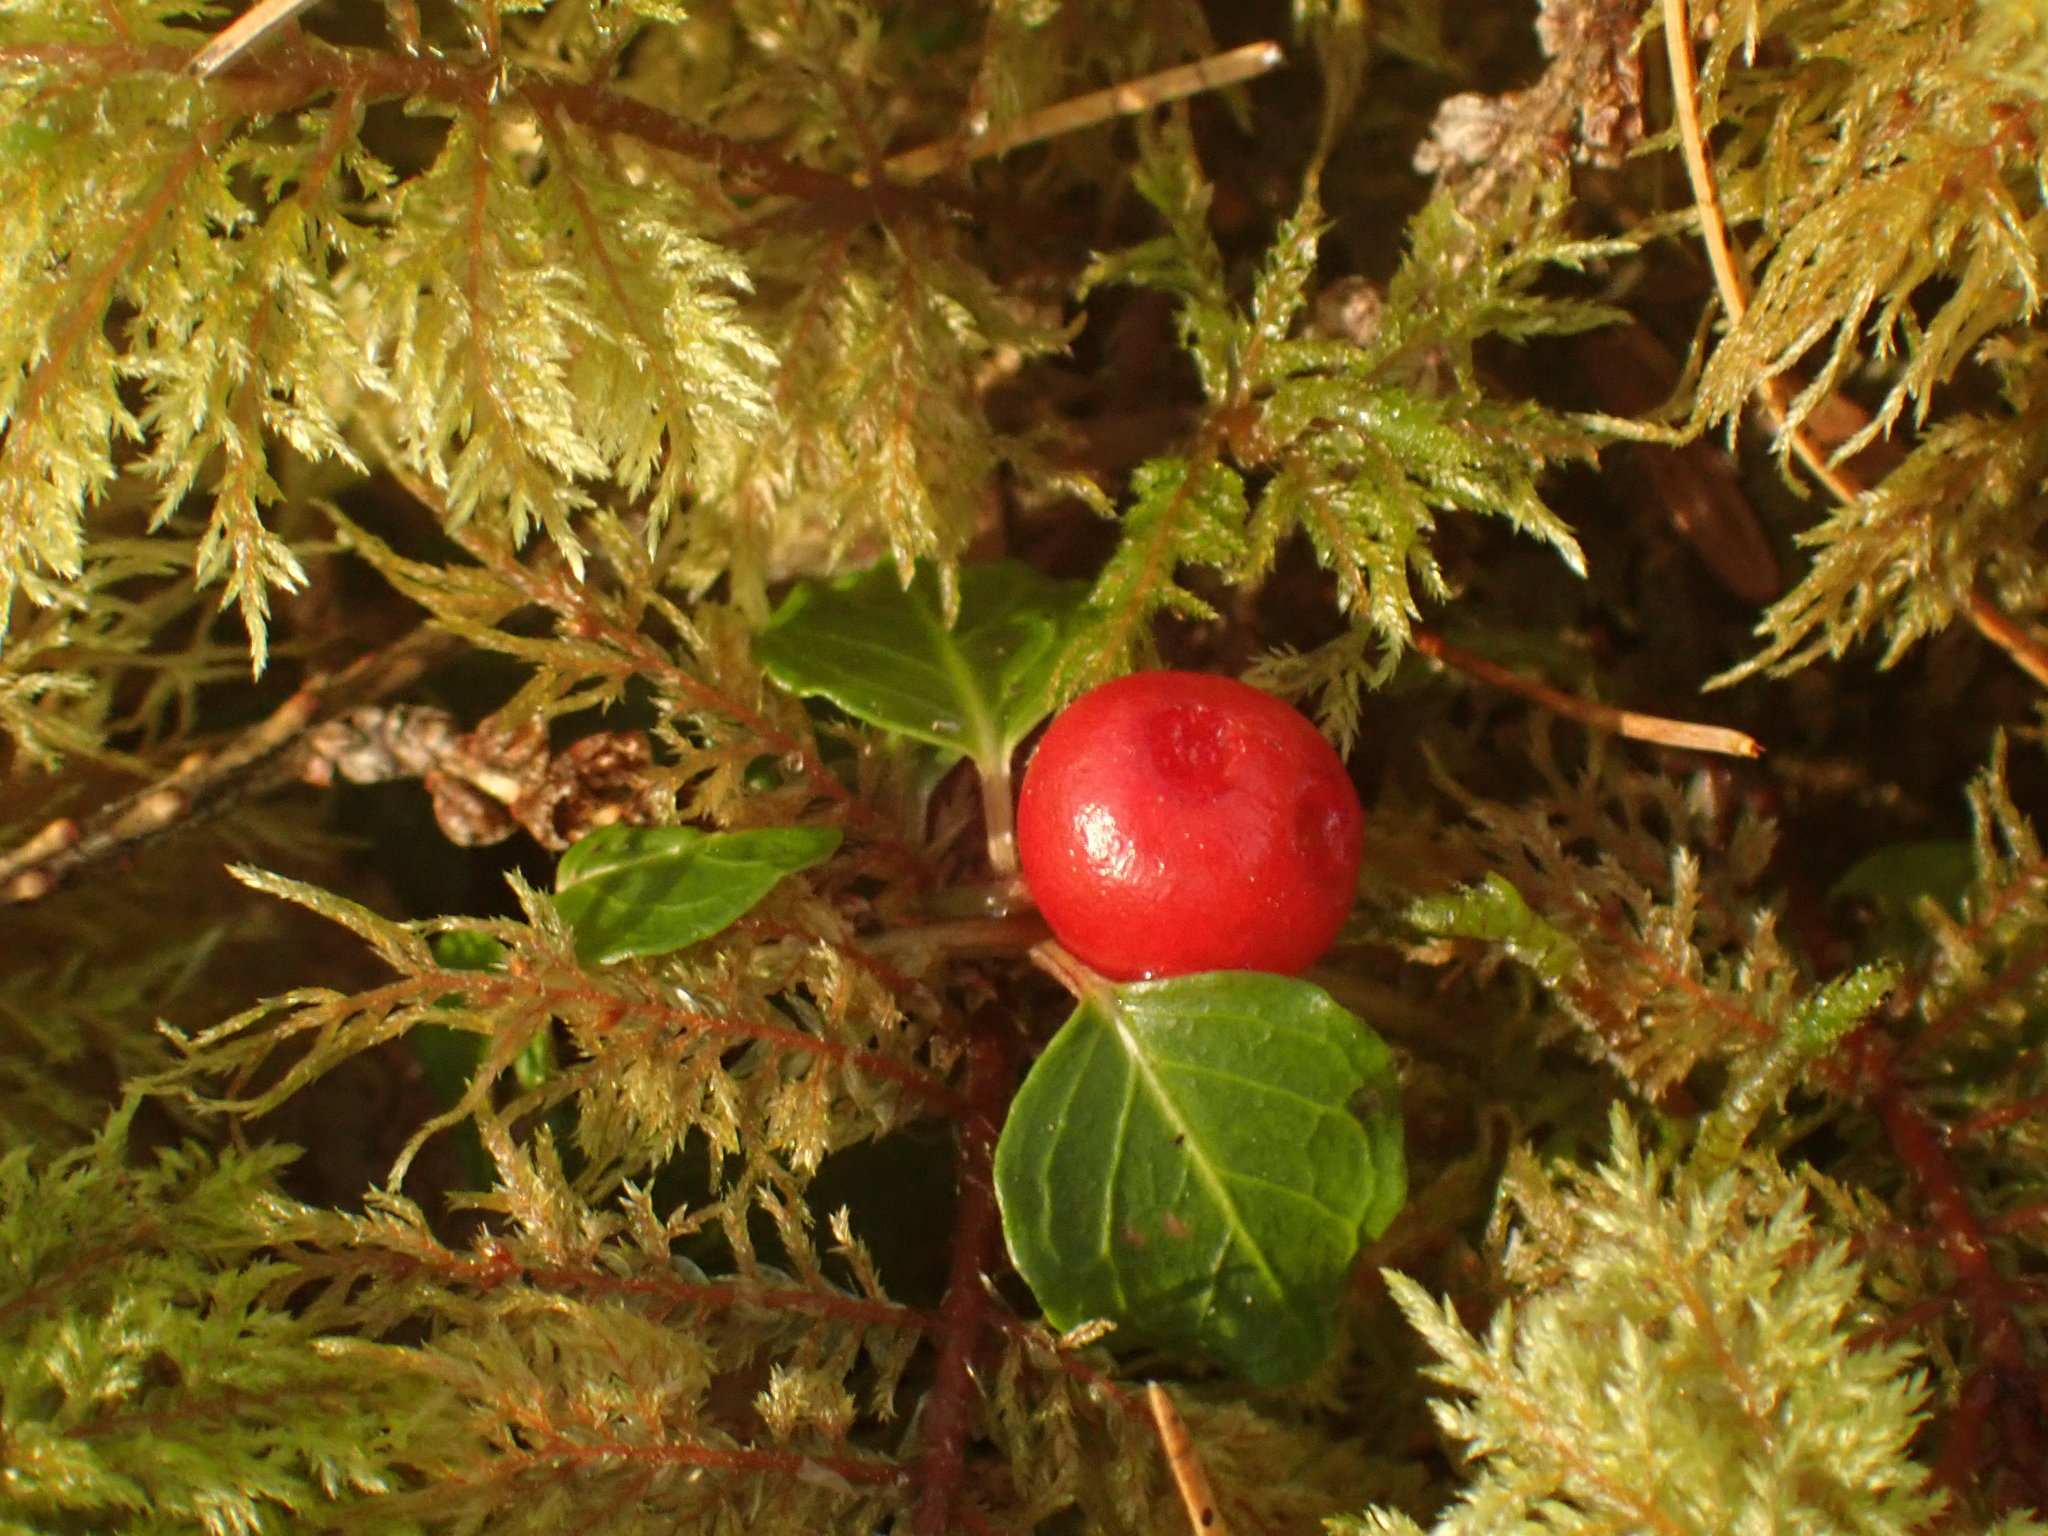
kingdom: Plantae
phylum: Tracheophyta
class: Magnoliopsida
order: Gentianales
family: Rubiaceae
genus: Mitchella
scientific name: Mitchella repens
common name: Partridge-berry
